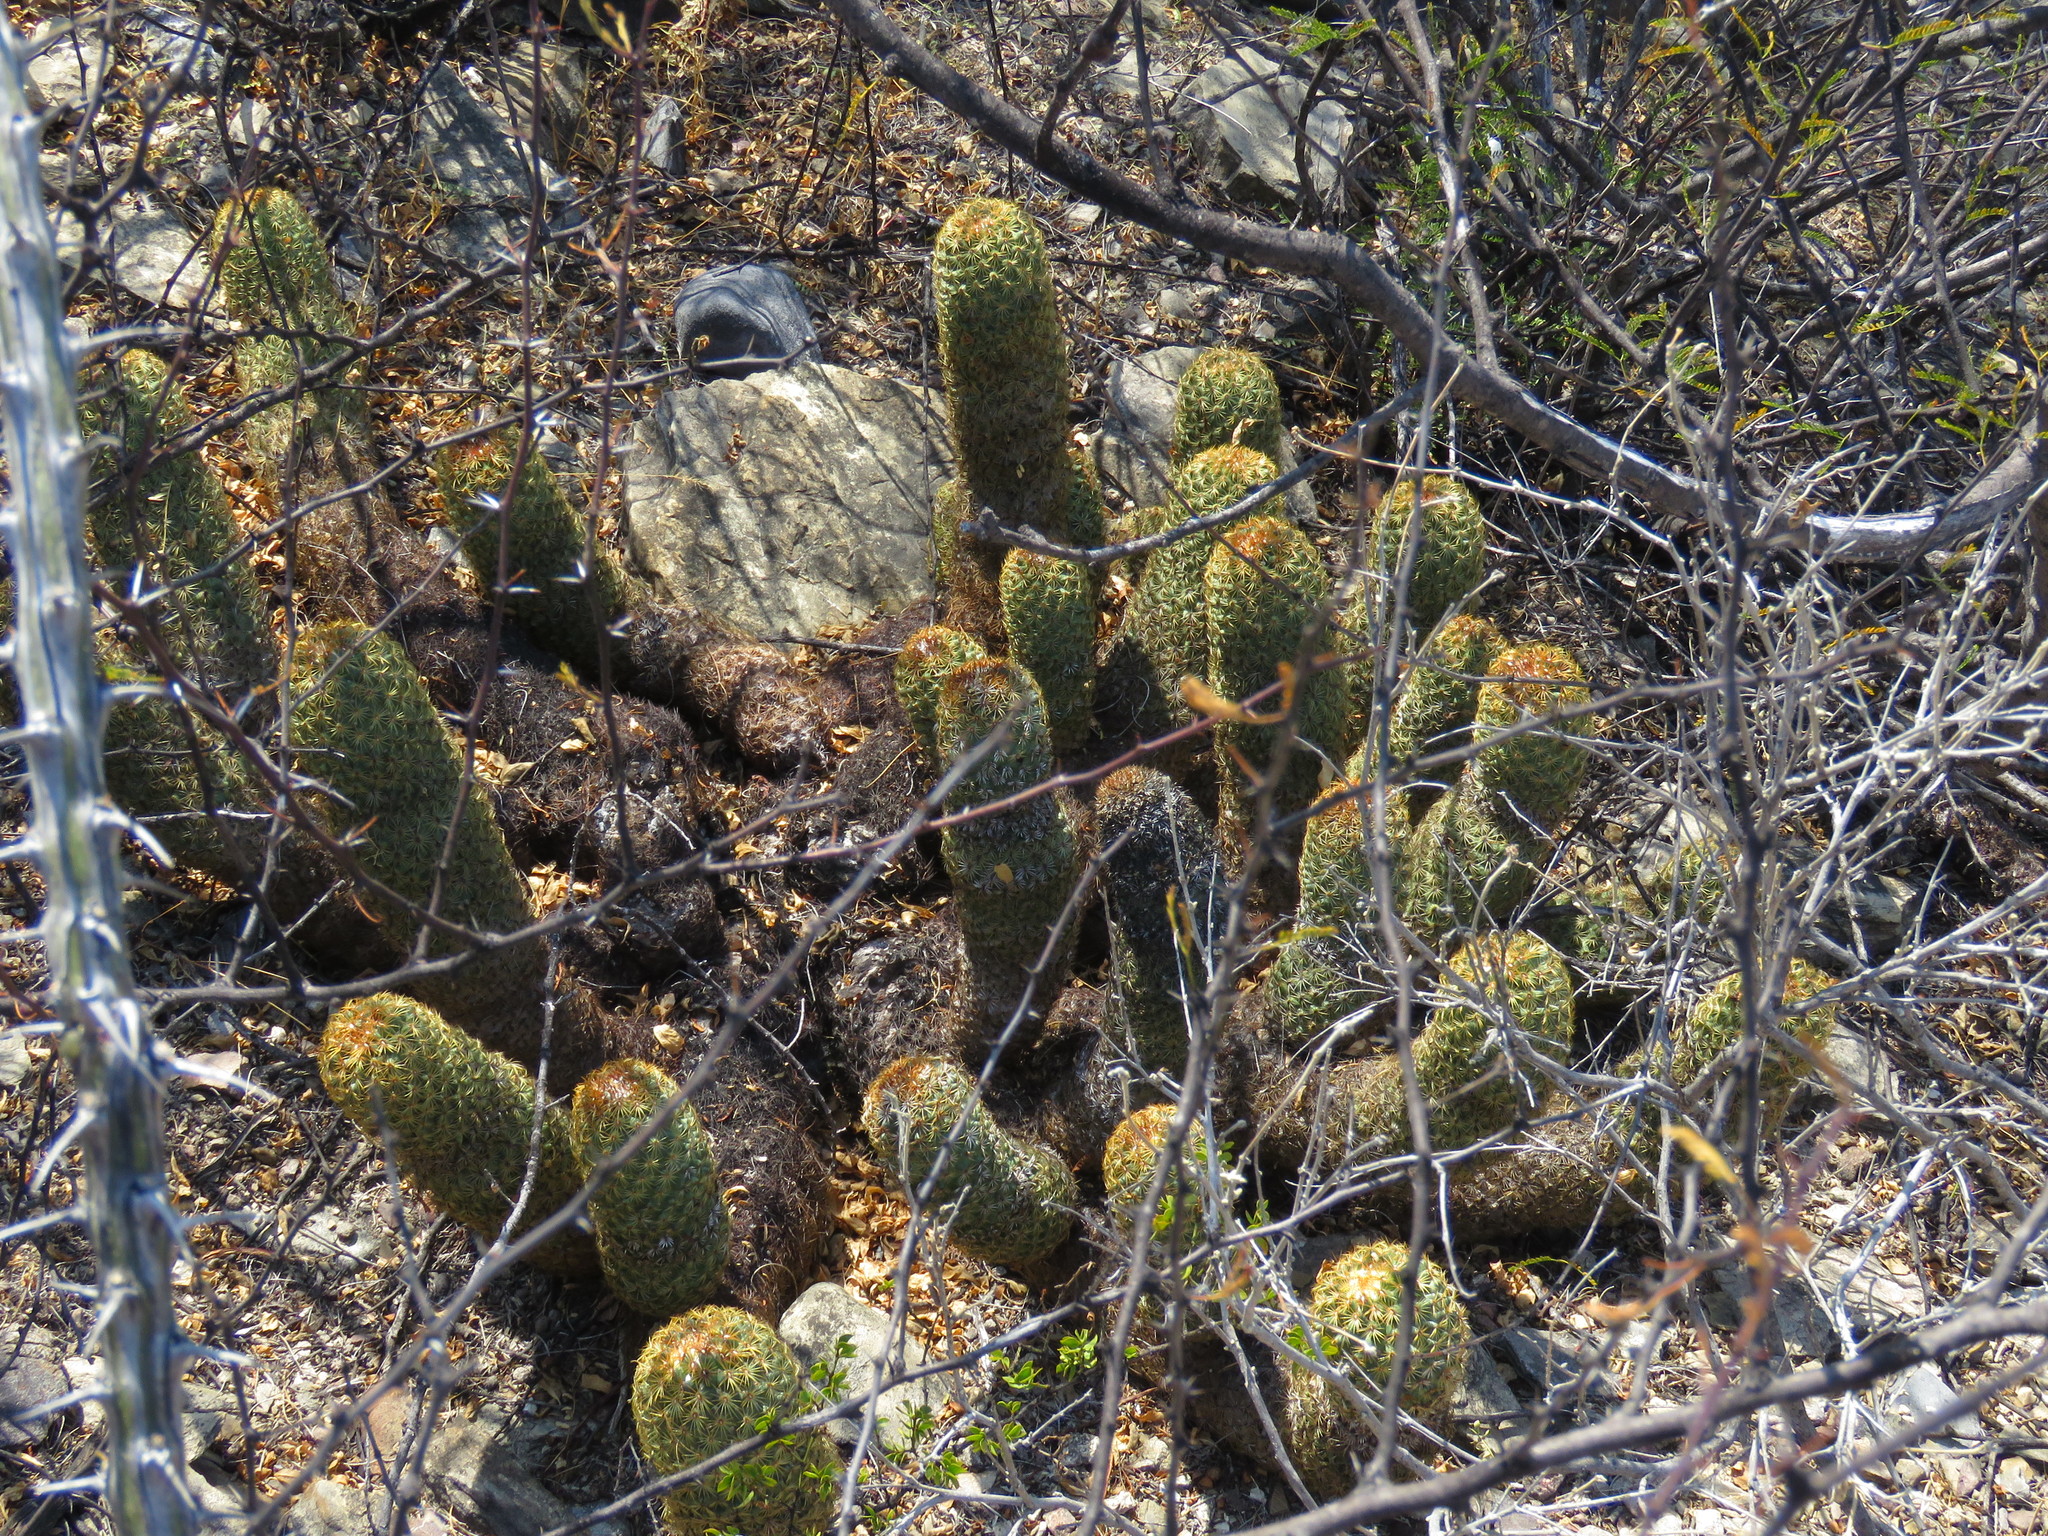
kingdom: Plantae
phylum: Tracheophyta
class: Magnoliopsida
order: Caryophyllales
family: Cactaceae
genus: Coryphantha
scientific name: Coryphantha erecta
